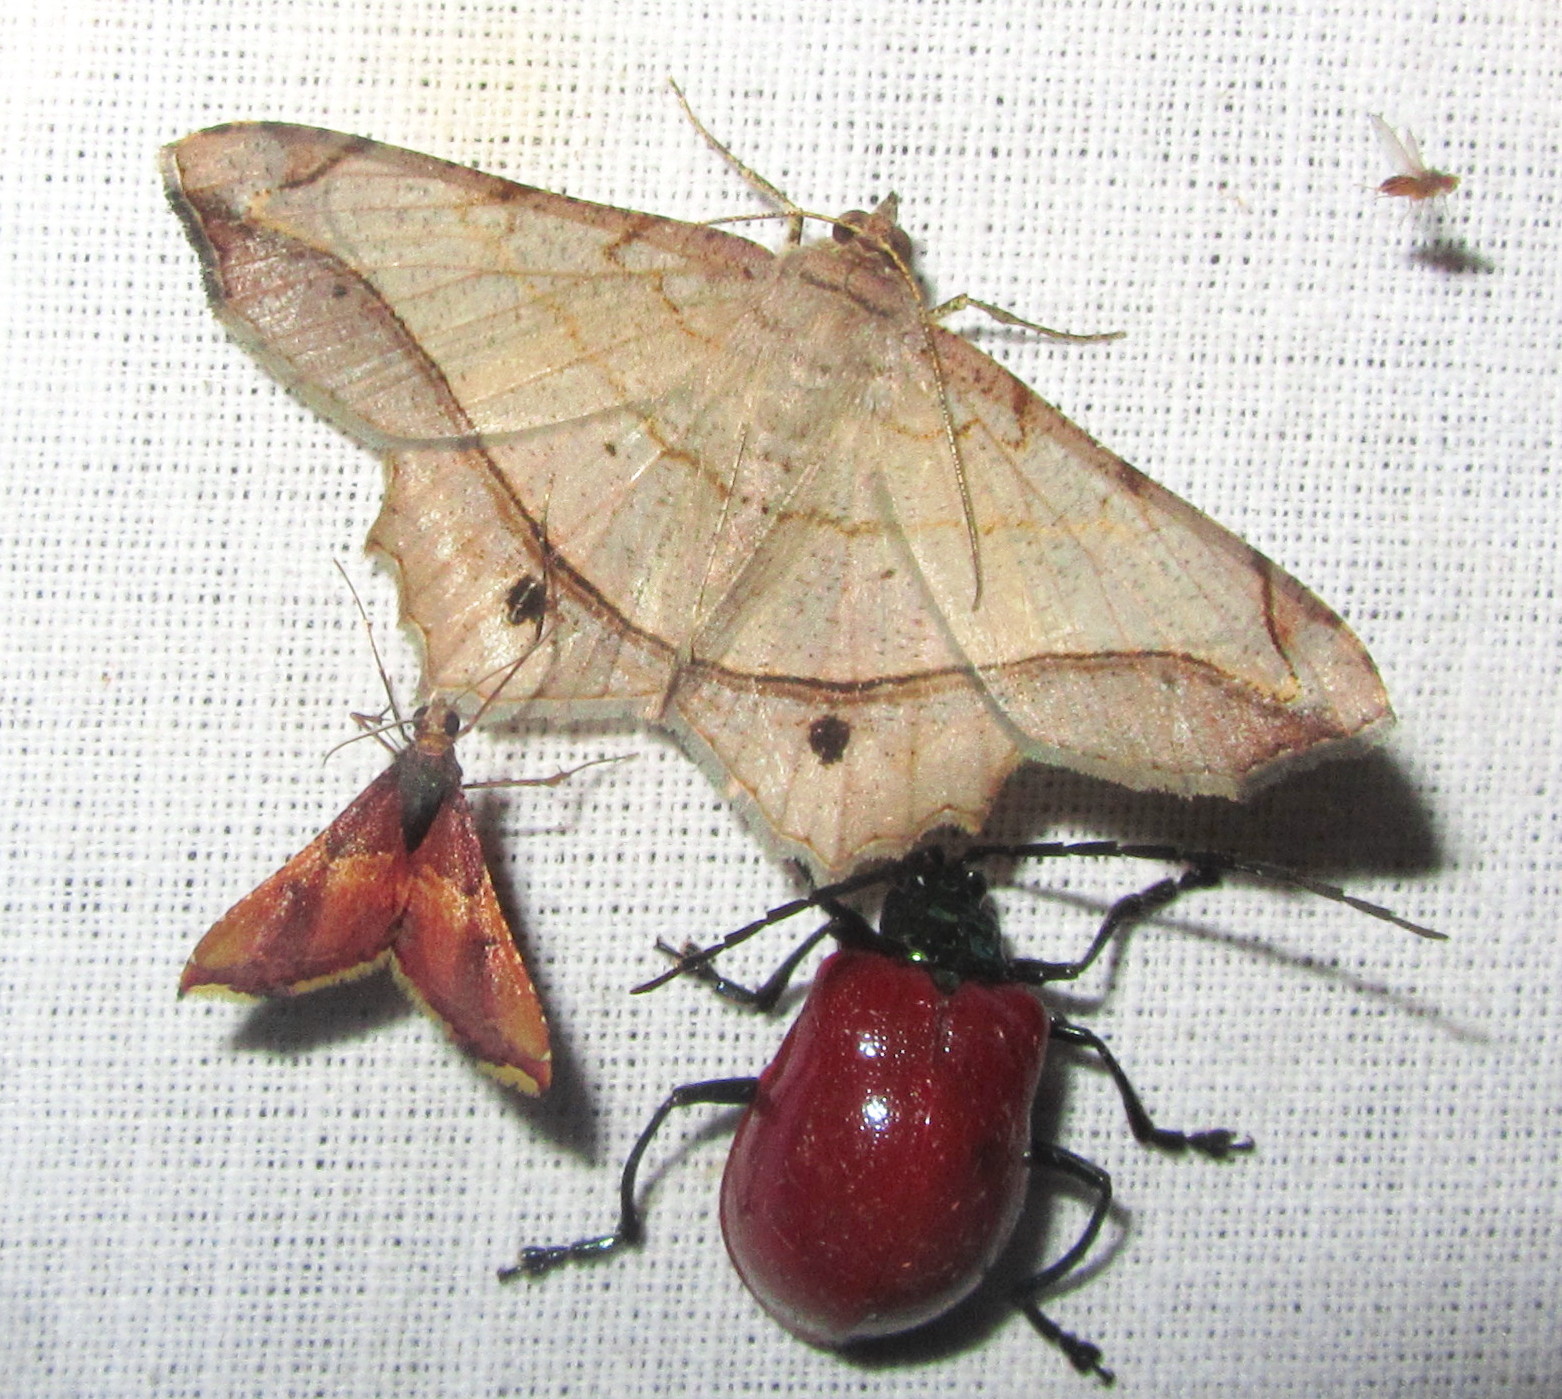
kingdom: Animalia
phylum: Arthropoda
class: Insecta
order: Lepidoptera
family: Geometridae
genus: Chiasmia
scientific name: Chiasmia monticolaria
